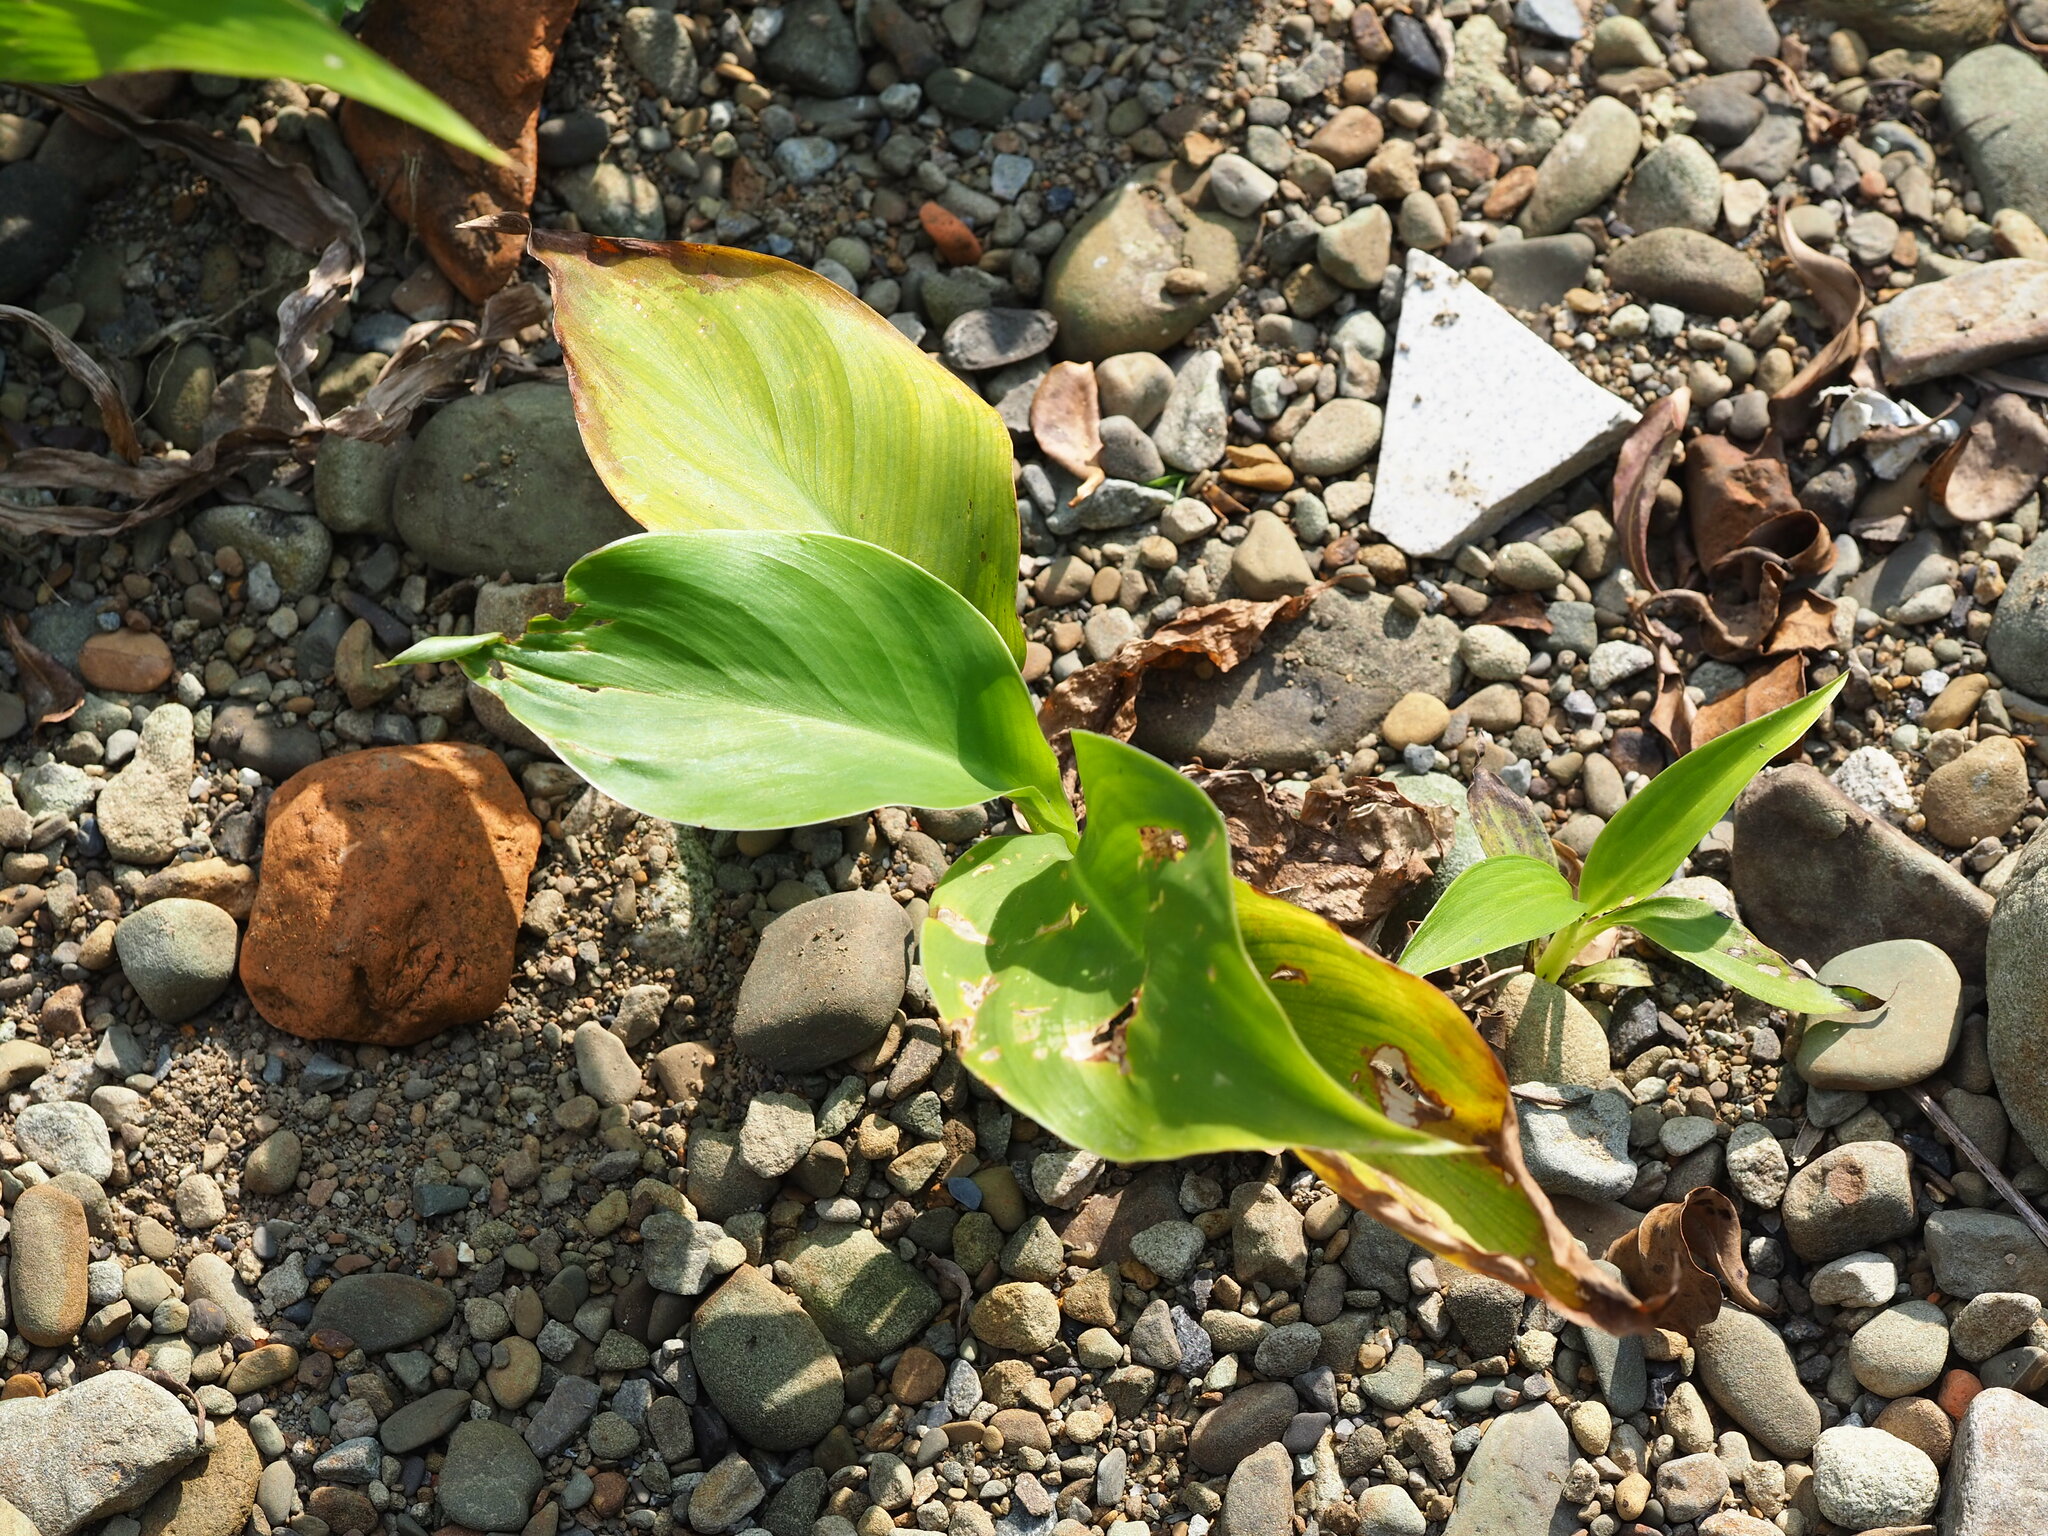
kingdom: Plantae
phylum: Tracheophyta
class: Liliopsida
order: Zingiberales
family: Cannaceae
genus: Canna
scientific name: Canna indica
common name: Indian shot
